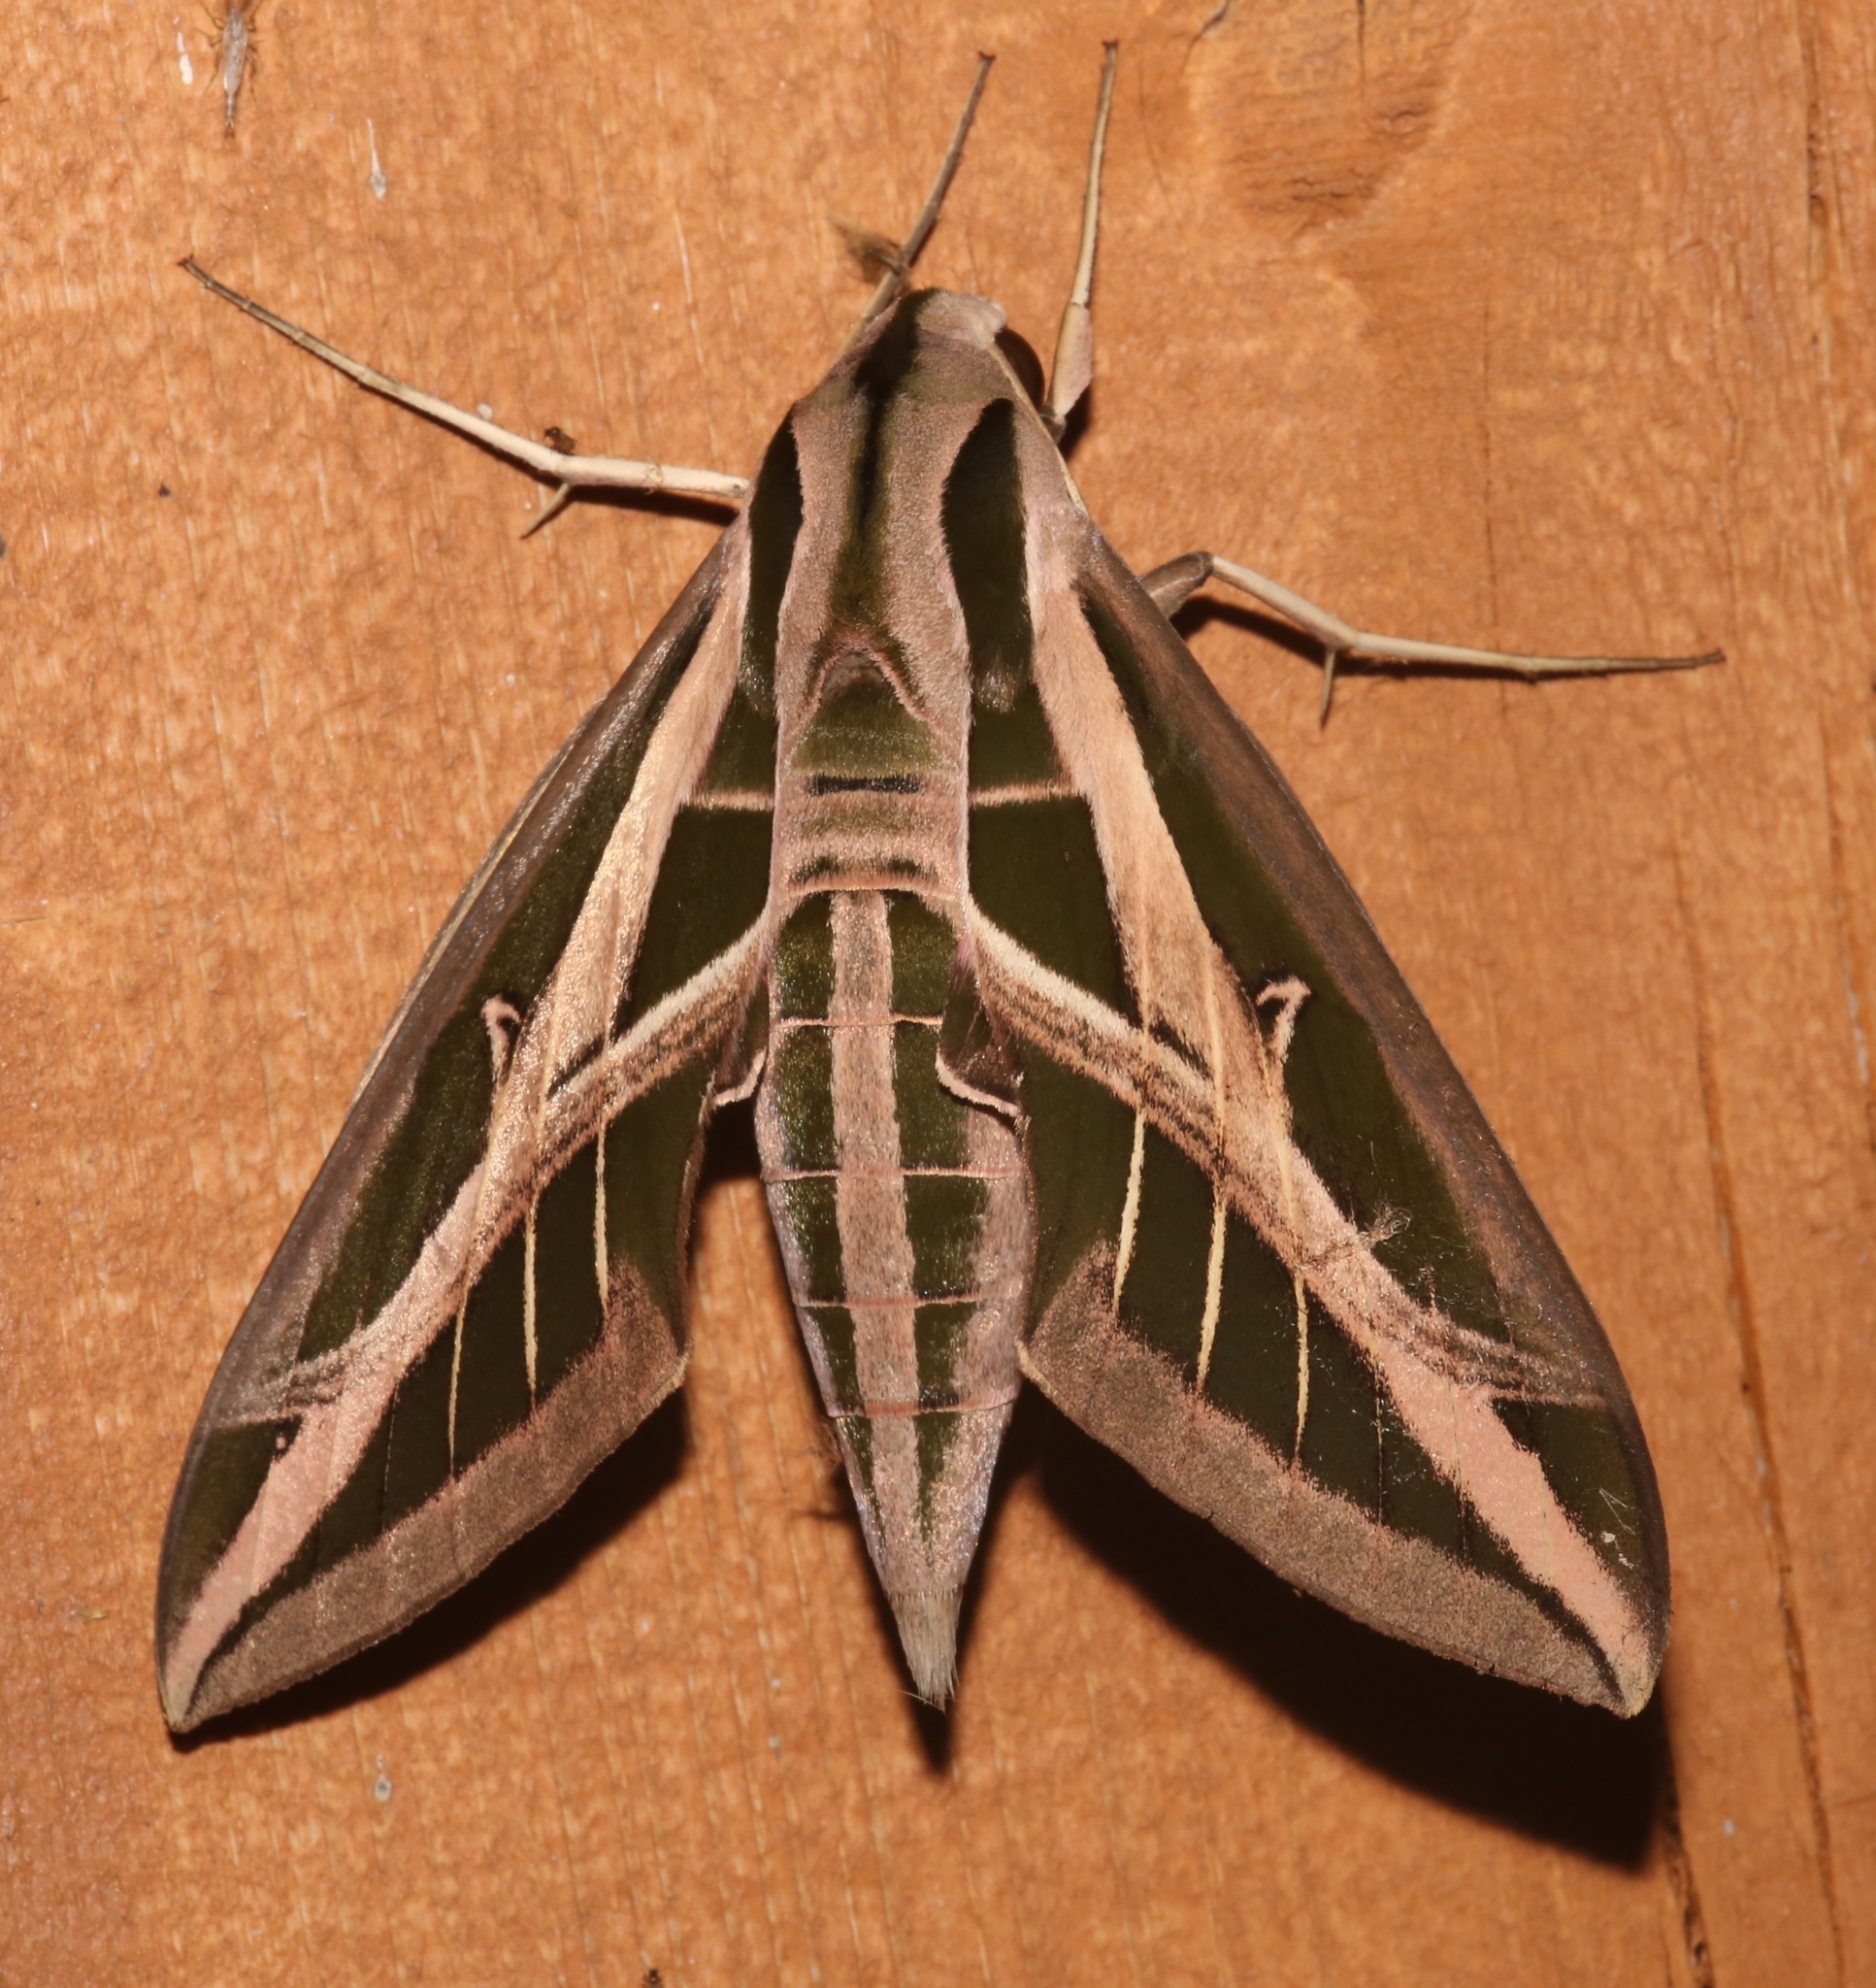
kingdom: Animalia
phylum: Arthropoda
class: Insecta
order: Lepidoptera
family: Sphingidae
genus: Eumorpha
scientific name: Eumorpha fasciatus
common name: Banded sphinx
